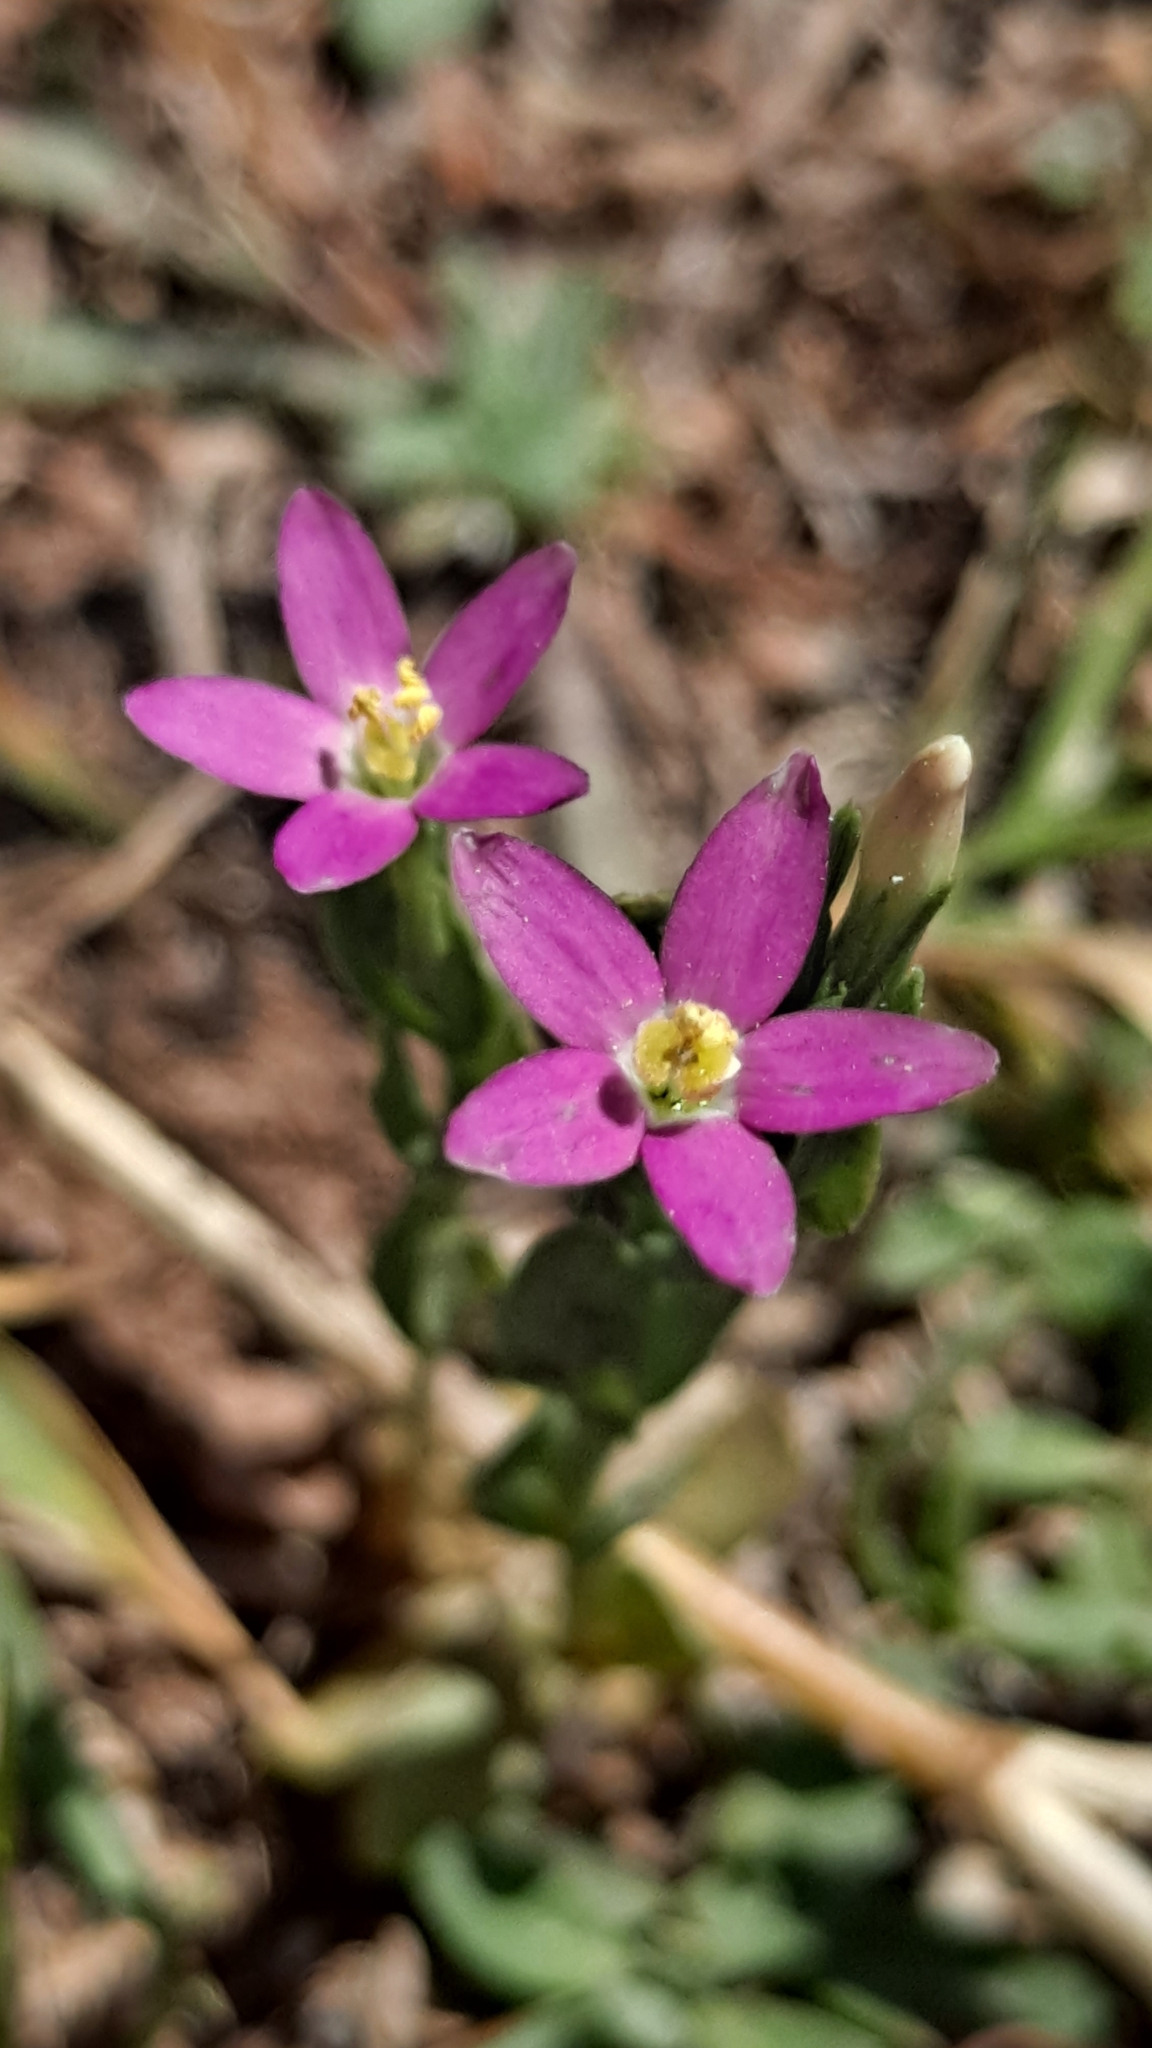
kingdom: Plantae
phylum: Tracheophyta
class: Magnoliopsida
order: Gentianales
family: Gentianaceae
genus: Centaurium
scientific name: Centaurium erythraea
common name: Common centaury
